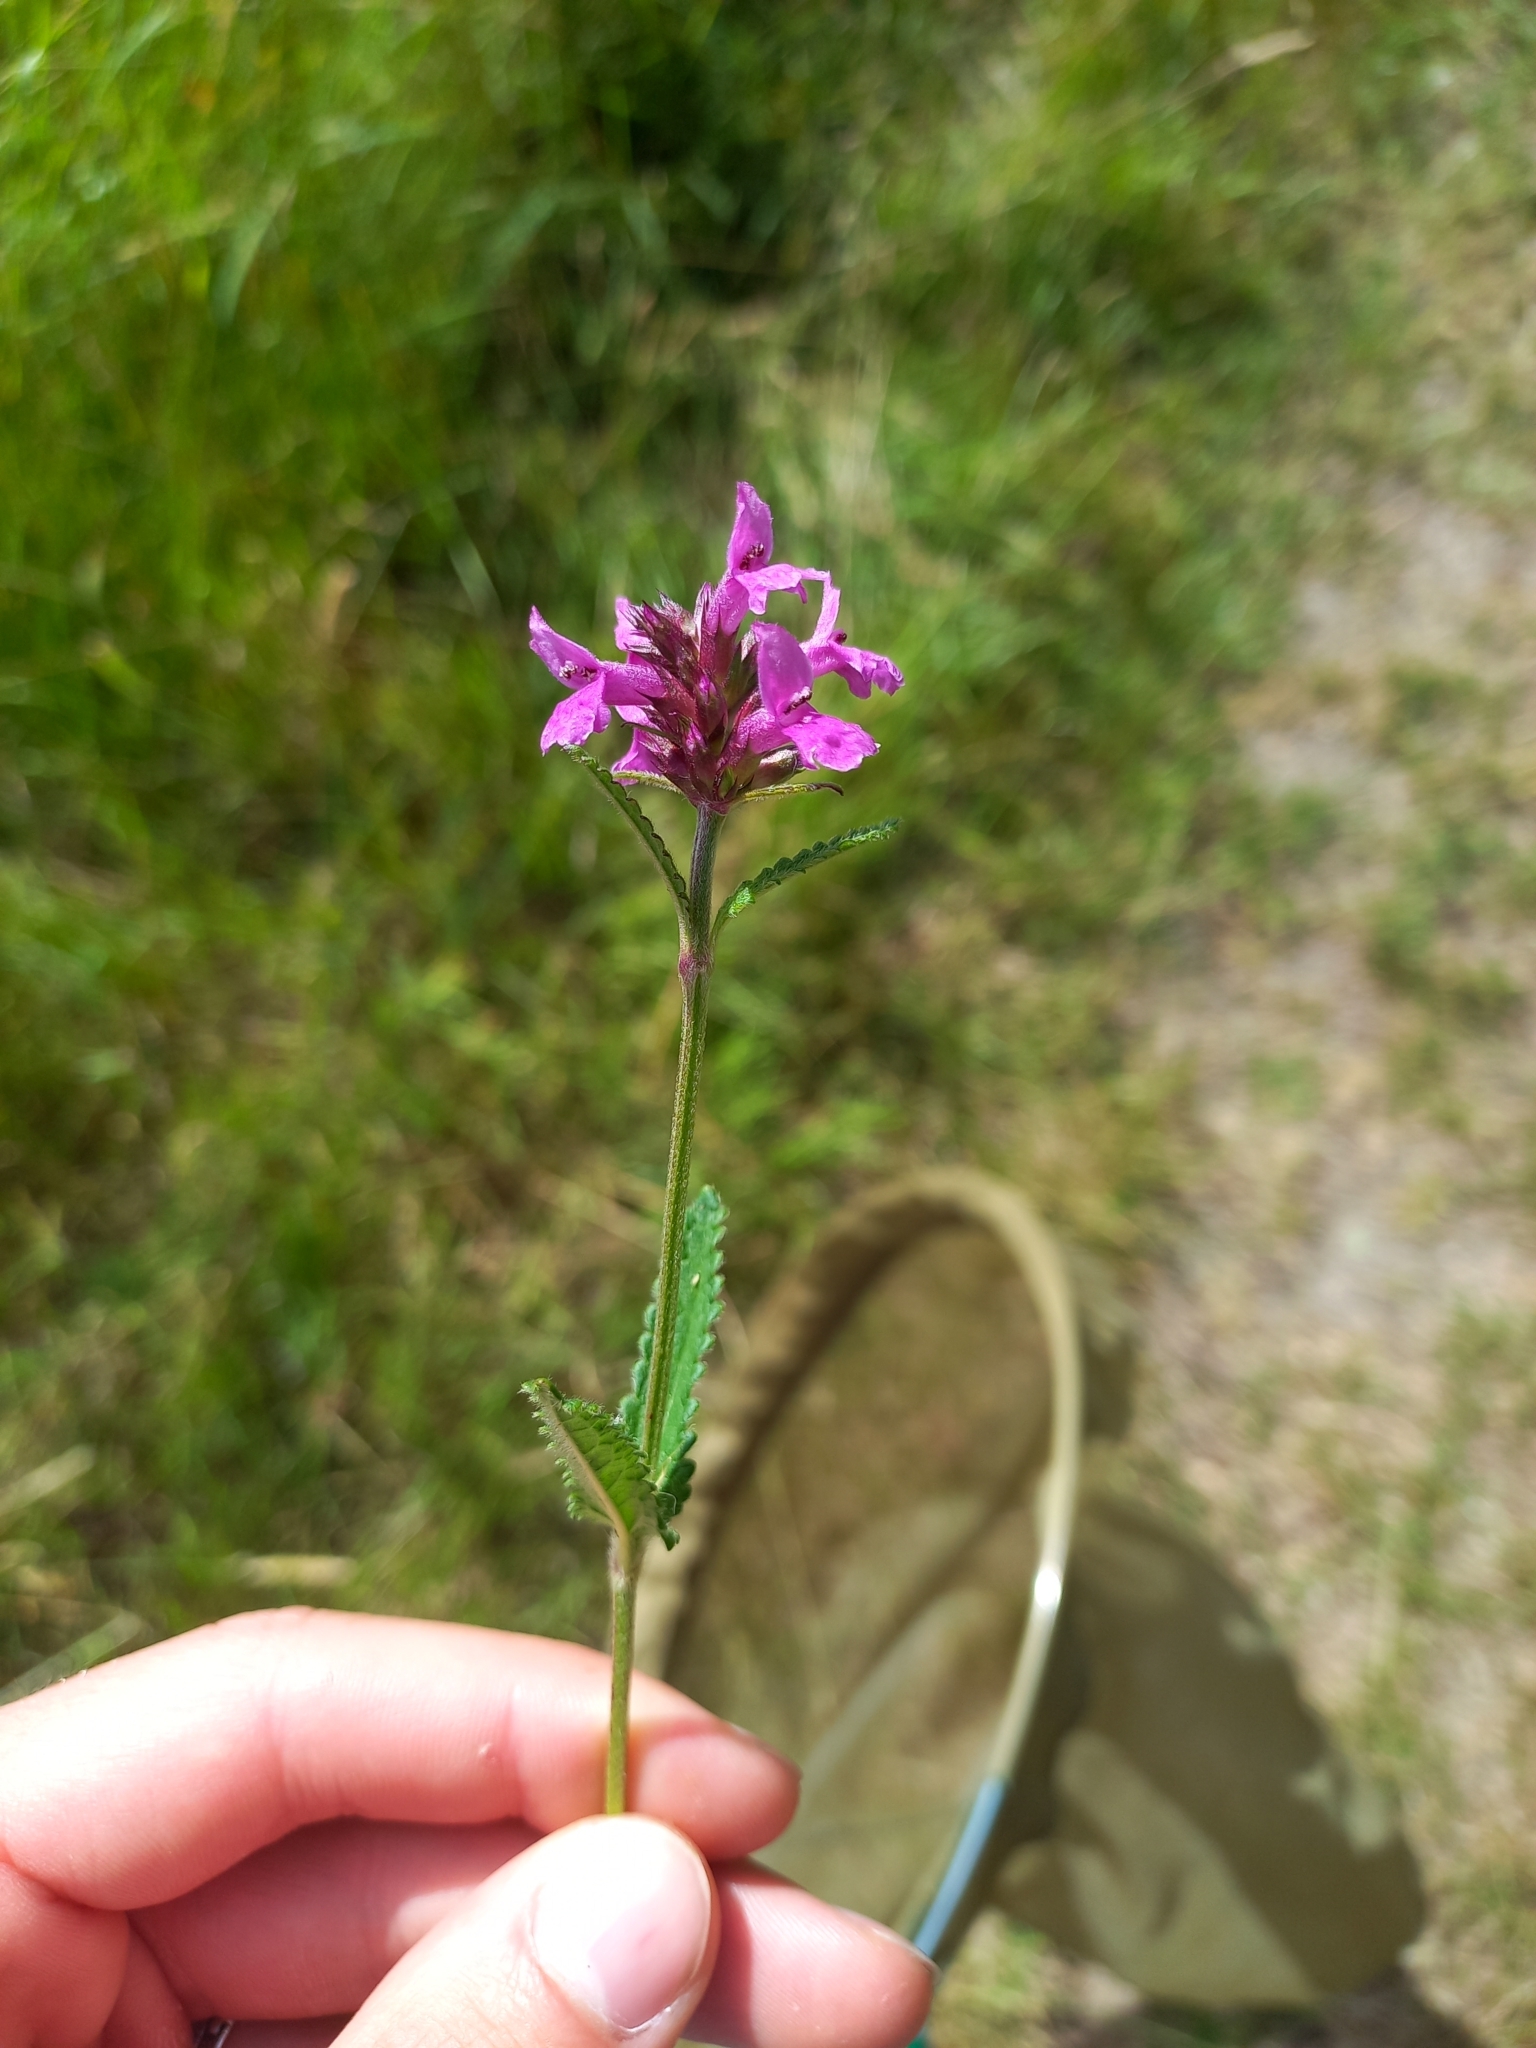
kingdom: Plantae
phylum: Tracheophyta
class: Magnoliopsida
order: Lamiales
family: Lamiaceae
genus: Betonica
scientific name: Betonica officinalis
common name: Bishop's-wort
